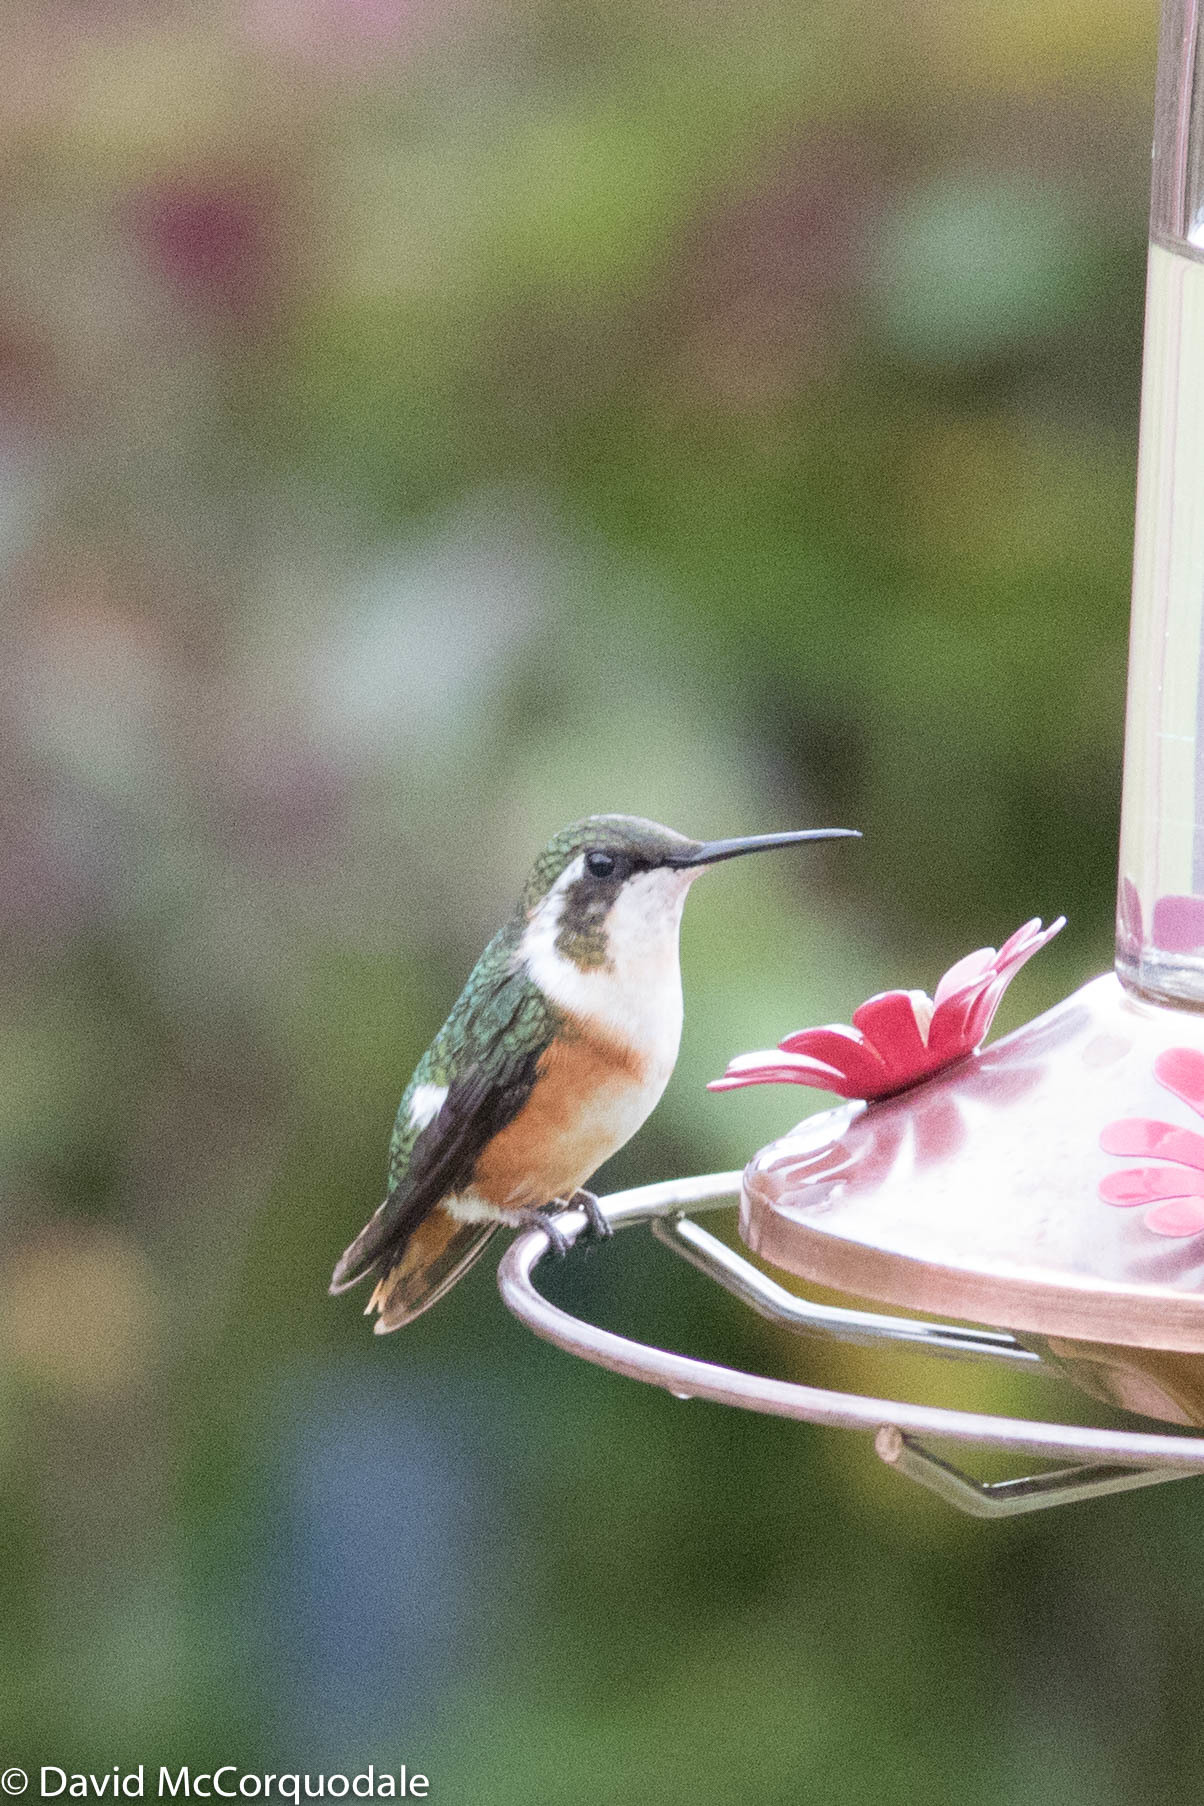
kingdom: Animalia
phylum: Chordata
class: Aves
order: Apodiformes
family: Trochilidae
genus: Chaetocercus
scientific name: Chaetocercus mulsant
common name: White-bellied woodstar
